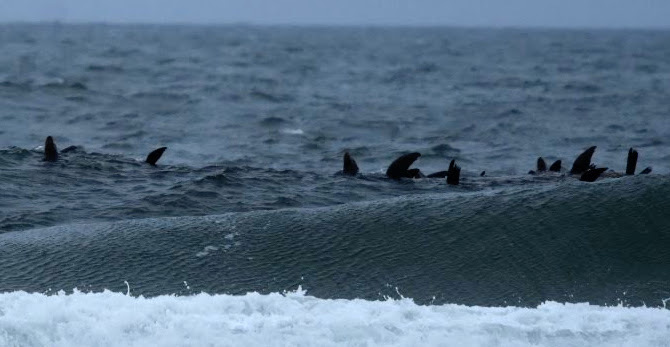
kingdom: Animalia
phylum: Chordata
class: Mammalia
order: Carnivora
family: Otariidae
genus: Zalophus
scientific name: Zalophus californianus
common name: California sea lion
